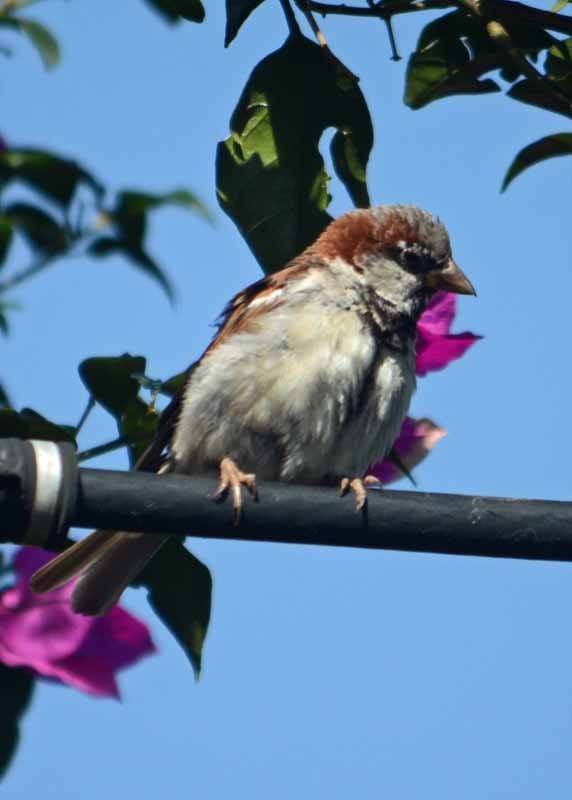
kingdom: Animalia
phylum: Chordata
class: Aves
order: Passeriformes
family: Passeridae
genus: Passer
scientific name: Passer domesticus
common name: House sparrow
